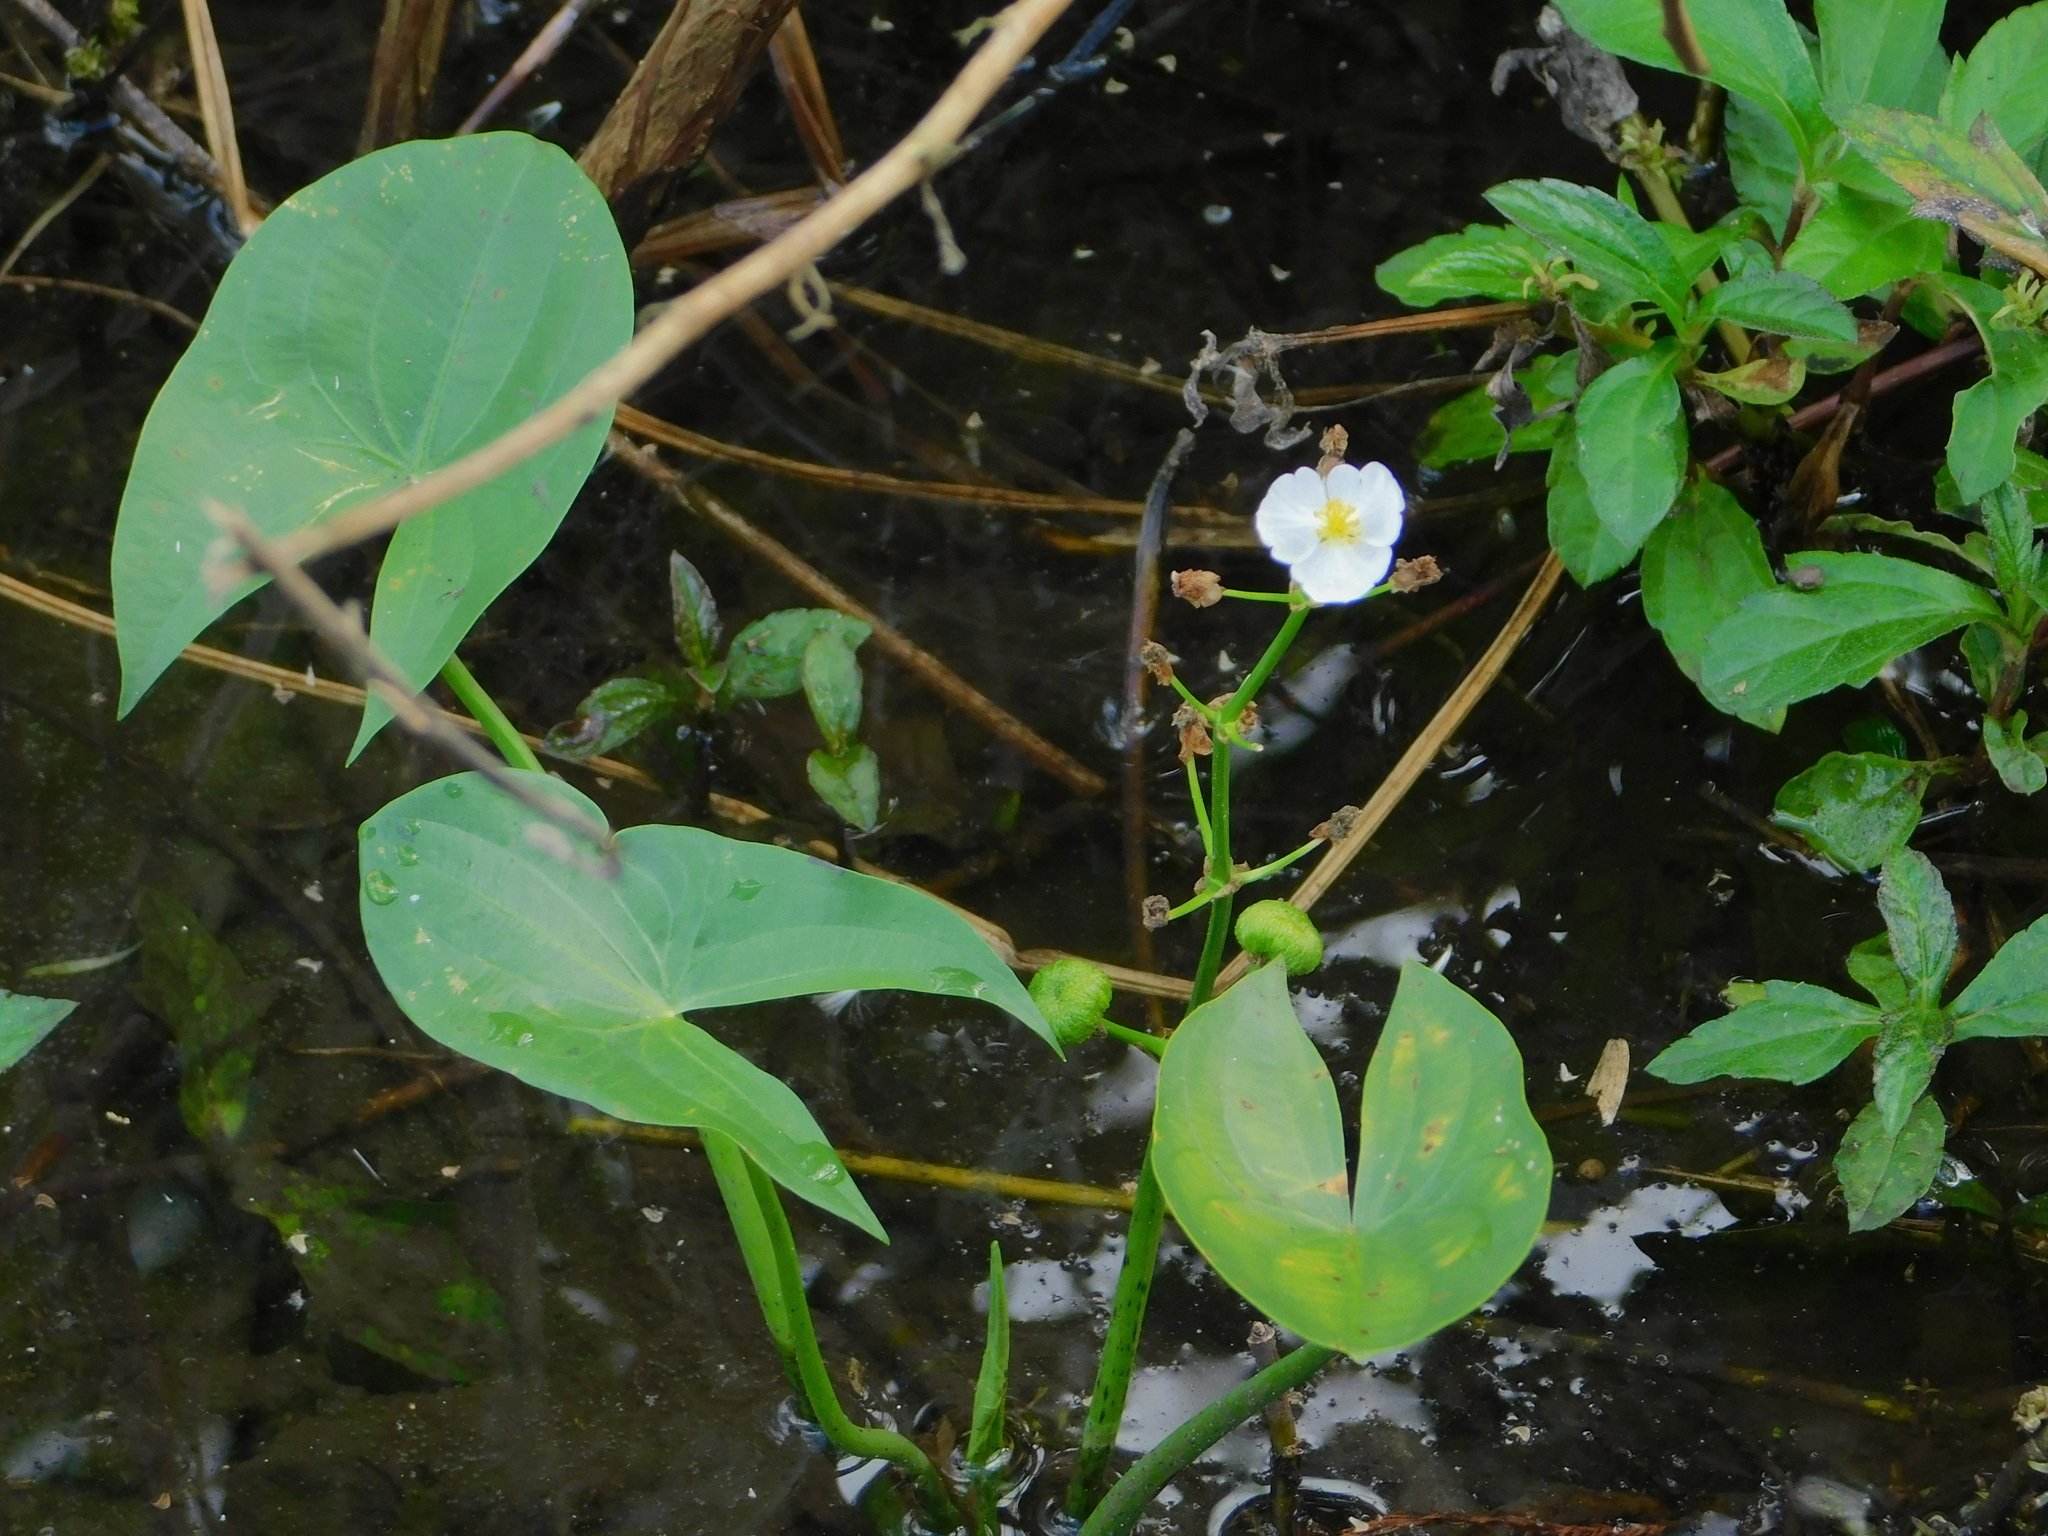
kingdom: Plantae
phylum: Tracheophyta
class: Liliopsida
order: Alismatales
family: Alismataceae
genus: Sagittaria
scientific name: Sagittaria latifolia
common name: Duck-potato
